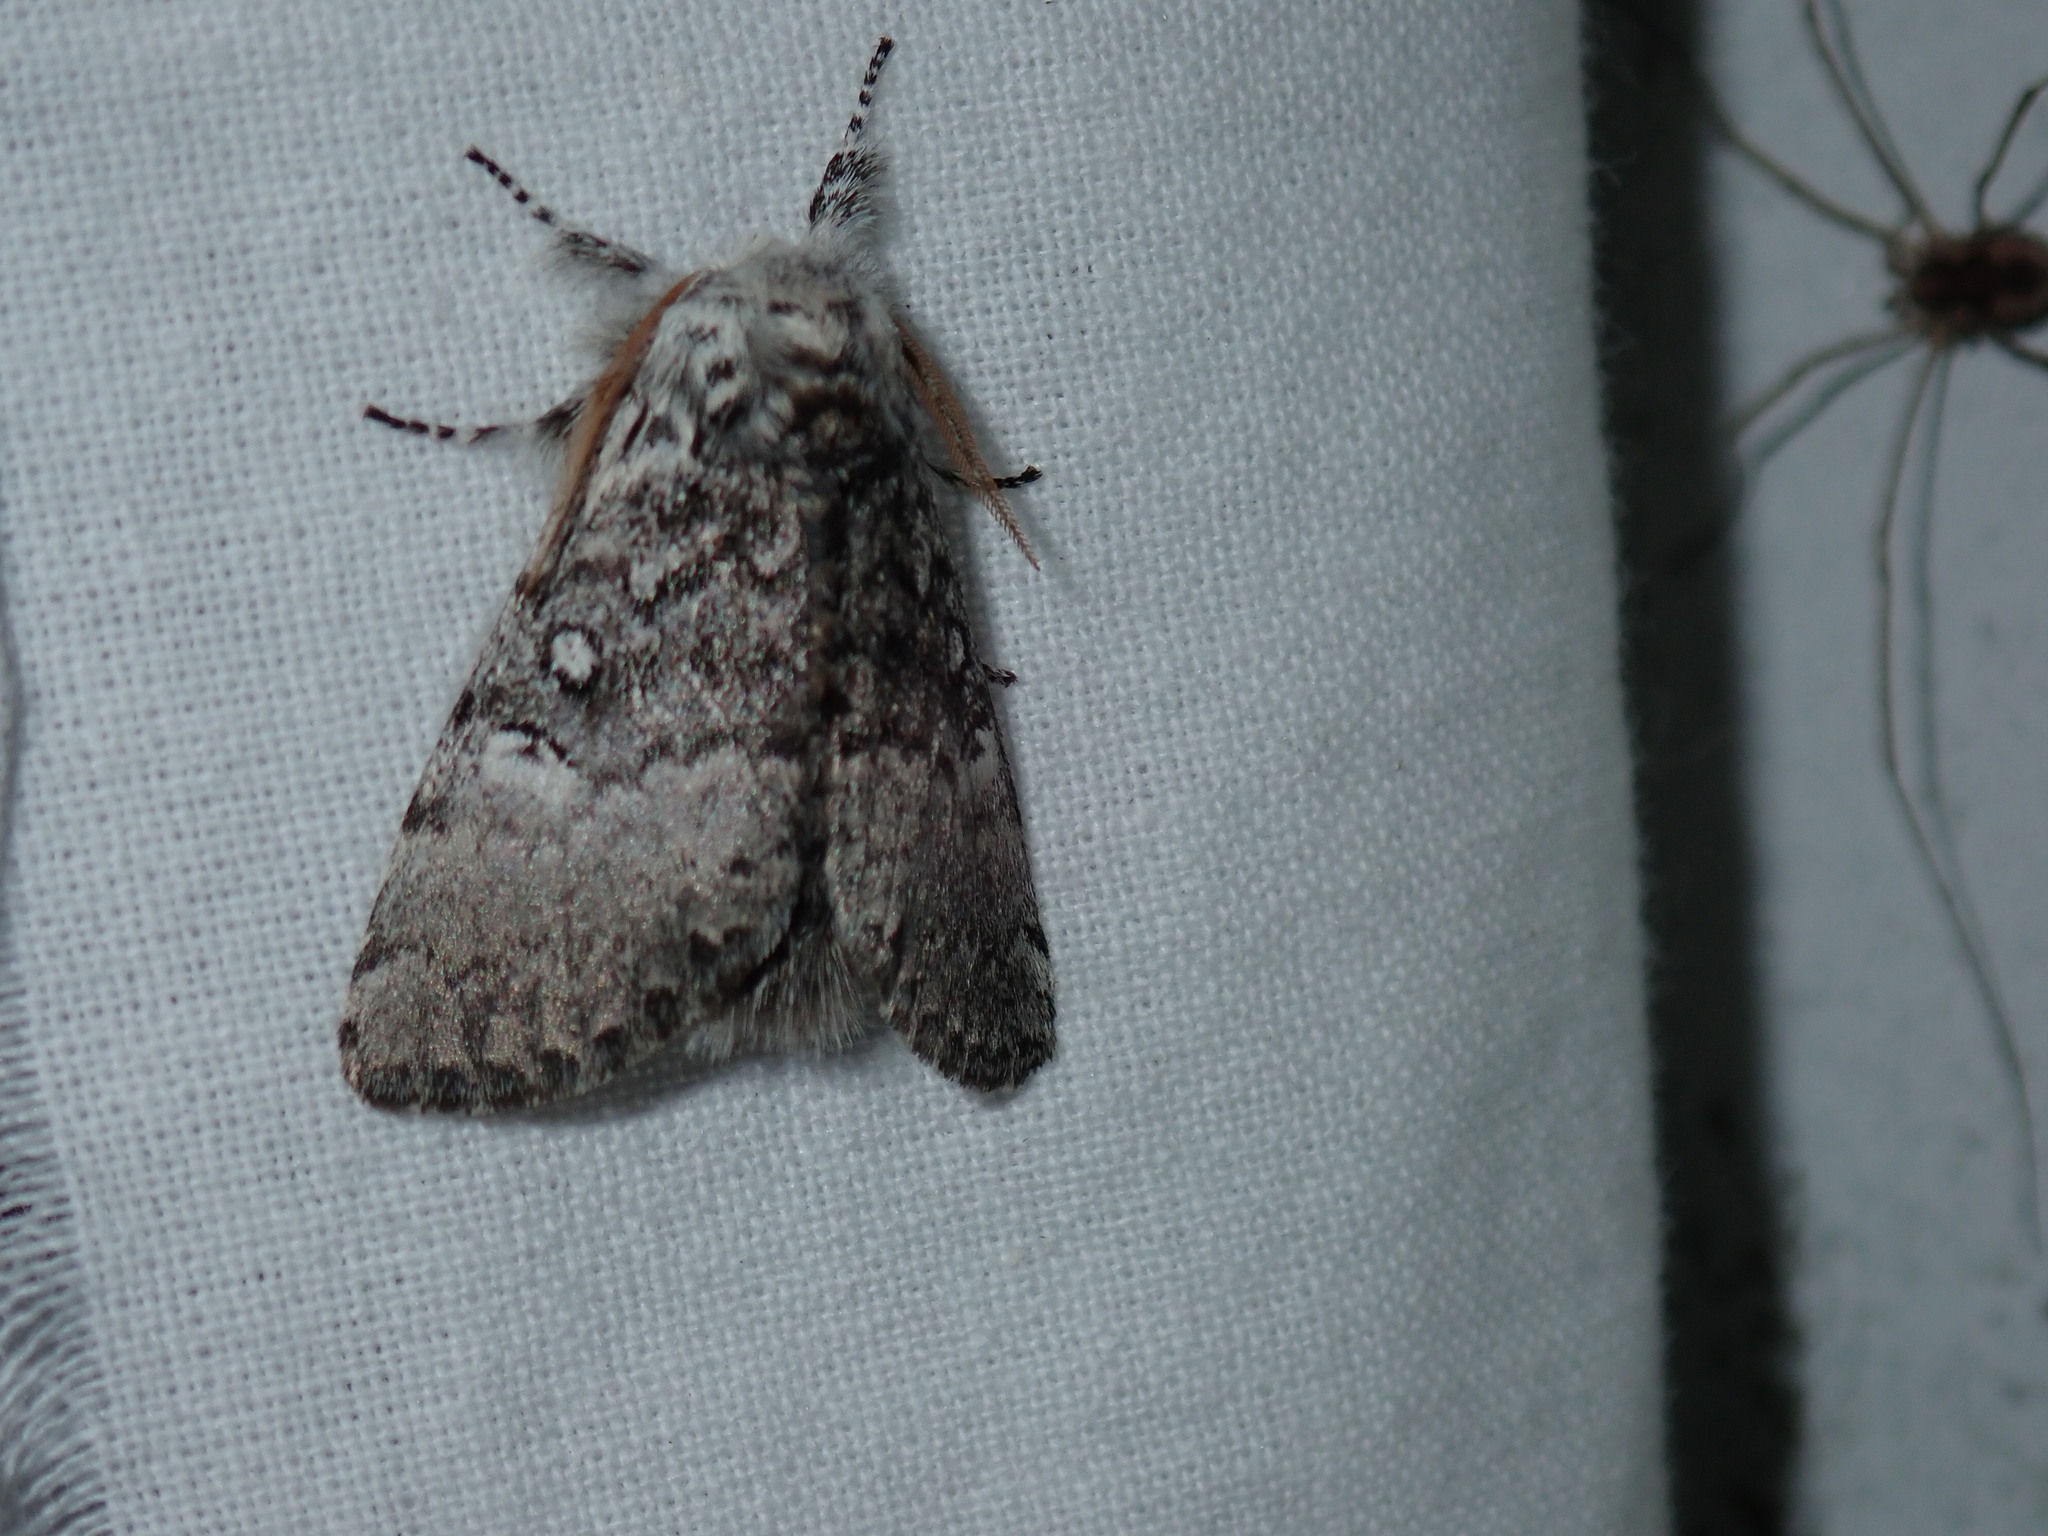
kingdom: Animalia
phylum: Arthropoda
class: Insecta
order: Lepidoptera
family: Noctuidae
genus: Colocasia
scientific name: Colocasia propinquilinea
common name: Close-banded demas
